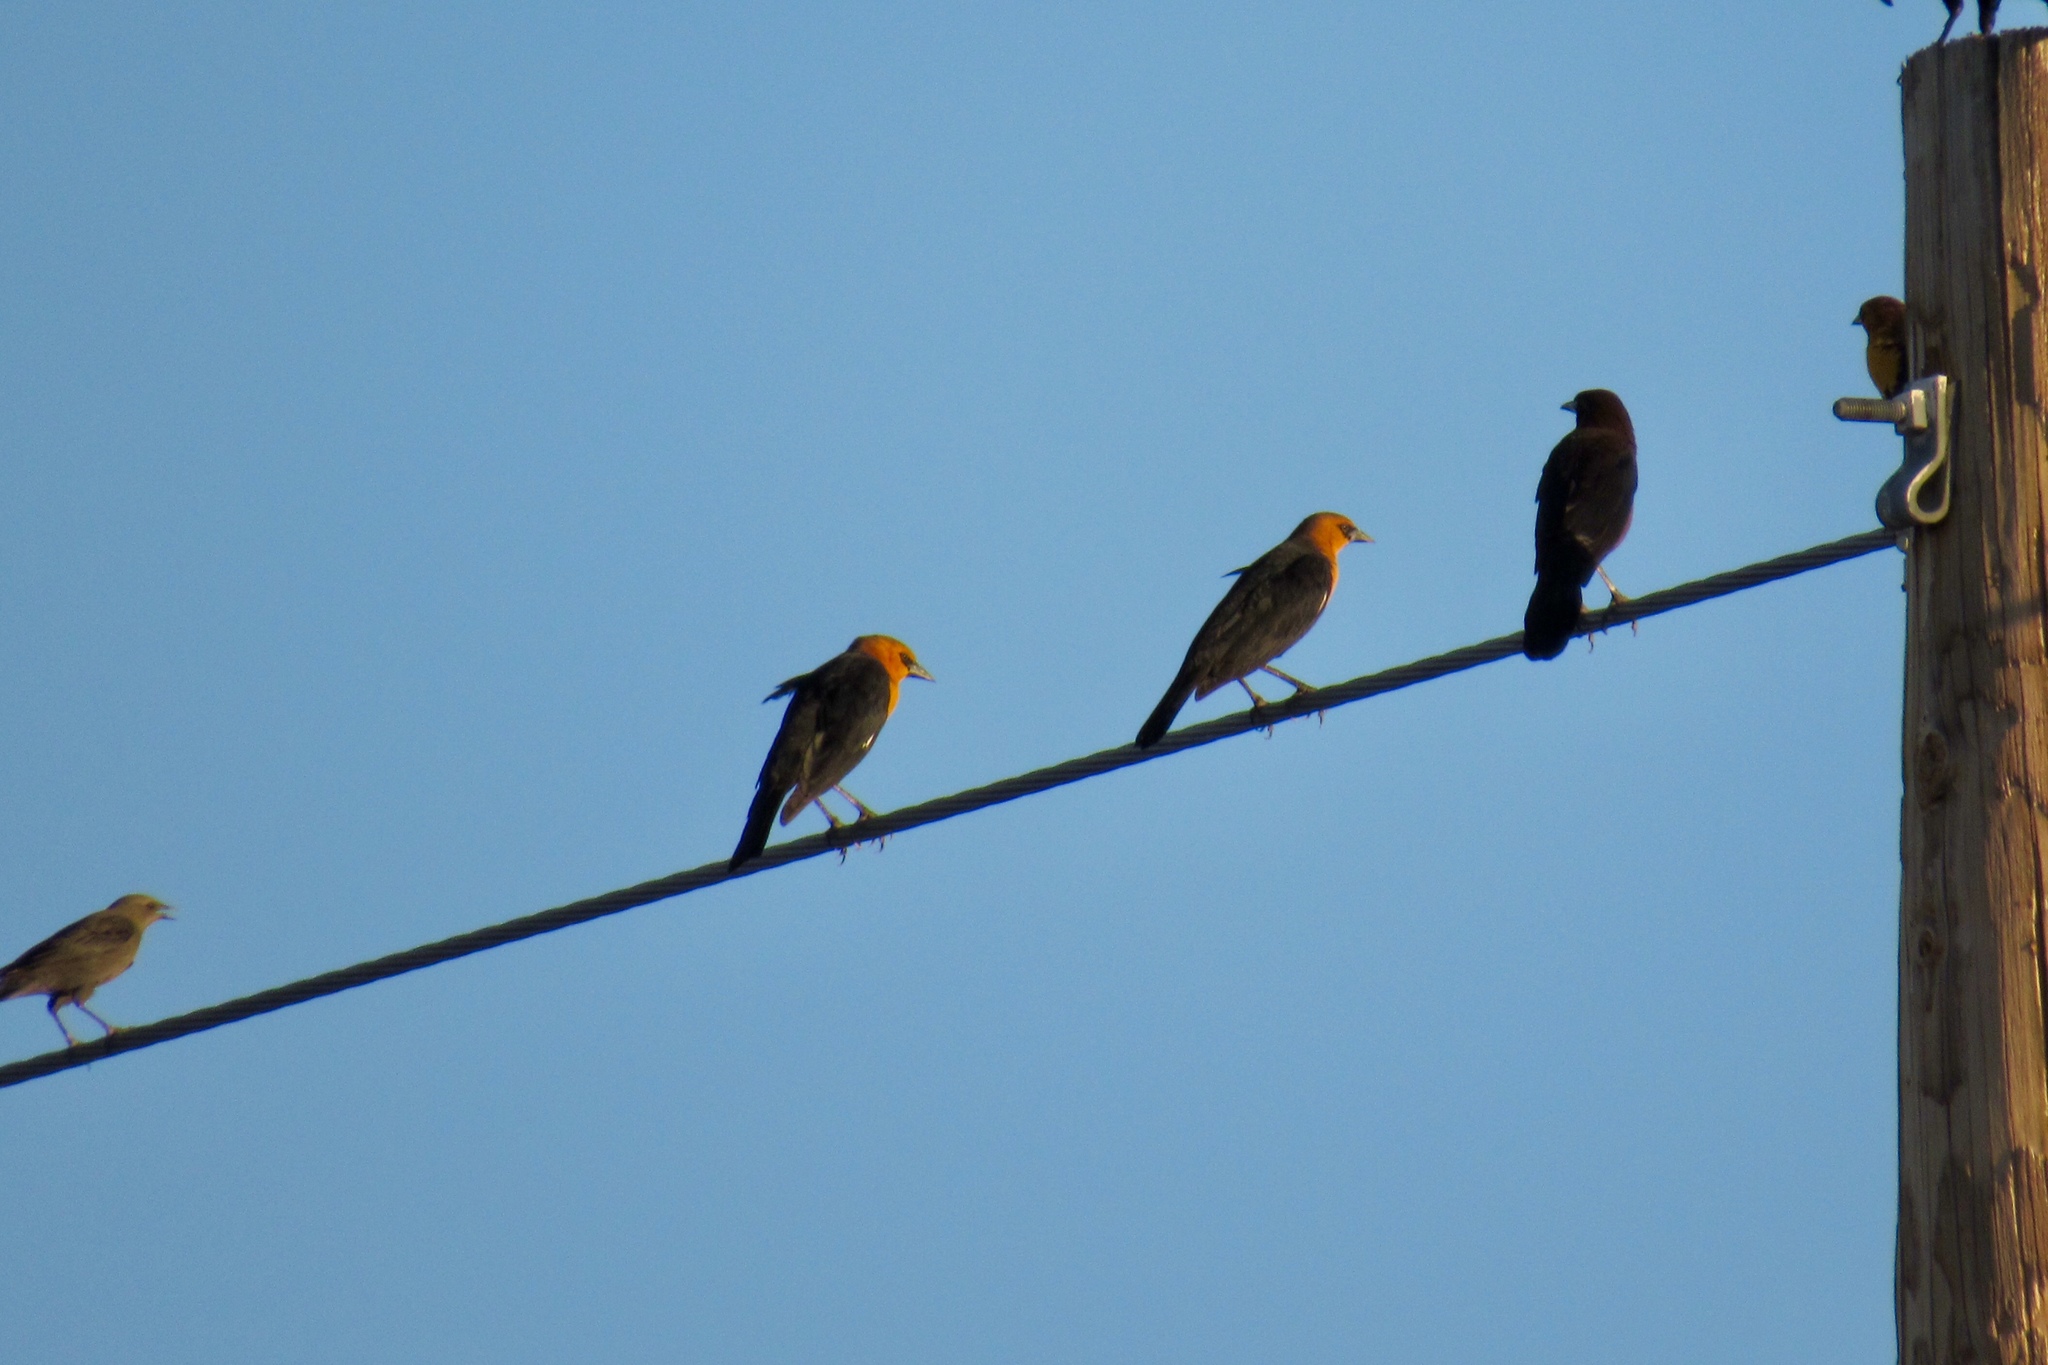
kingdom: Animalia
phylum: Chordata
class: Aves
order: Passeriformes
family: Icteridae
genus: Xanthocephalus
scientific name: Xanthocephalus xanthocephalus
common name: Yellow-headed blackbird
